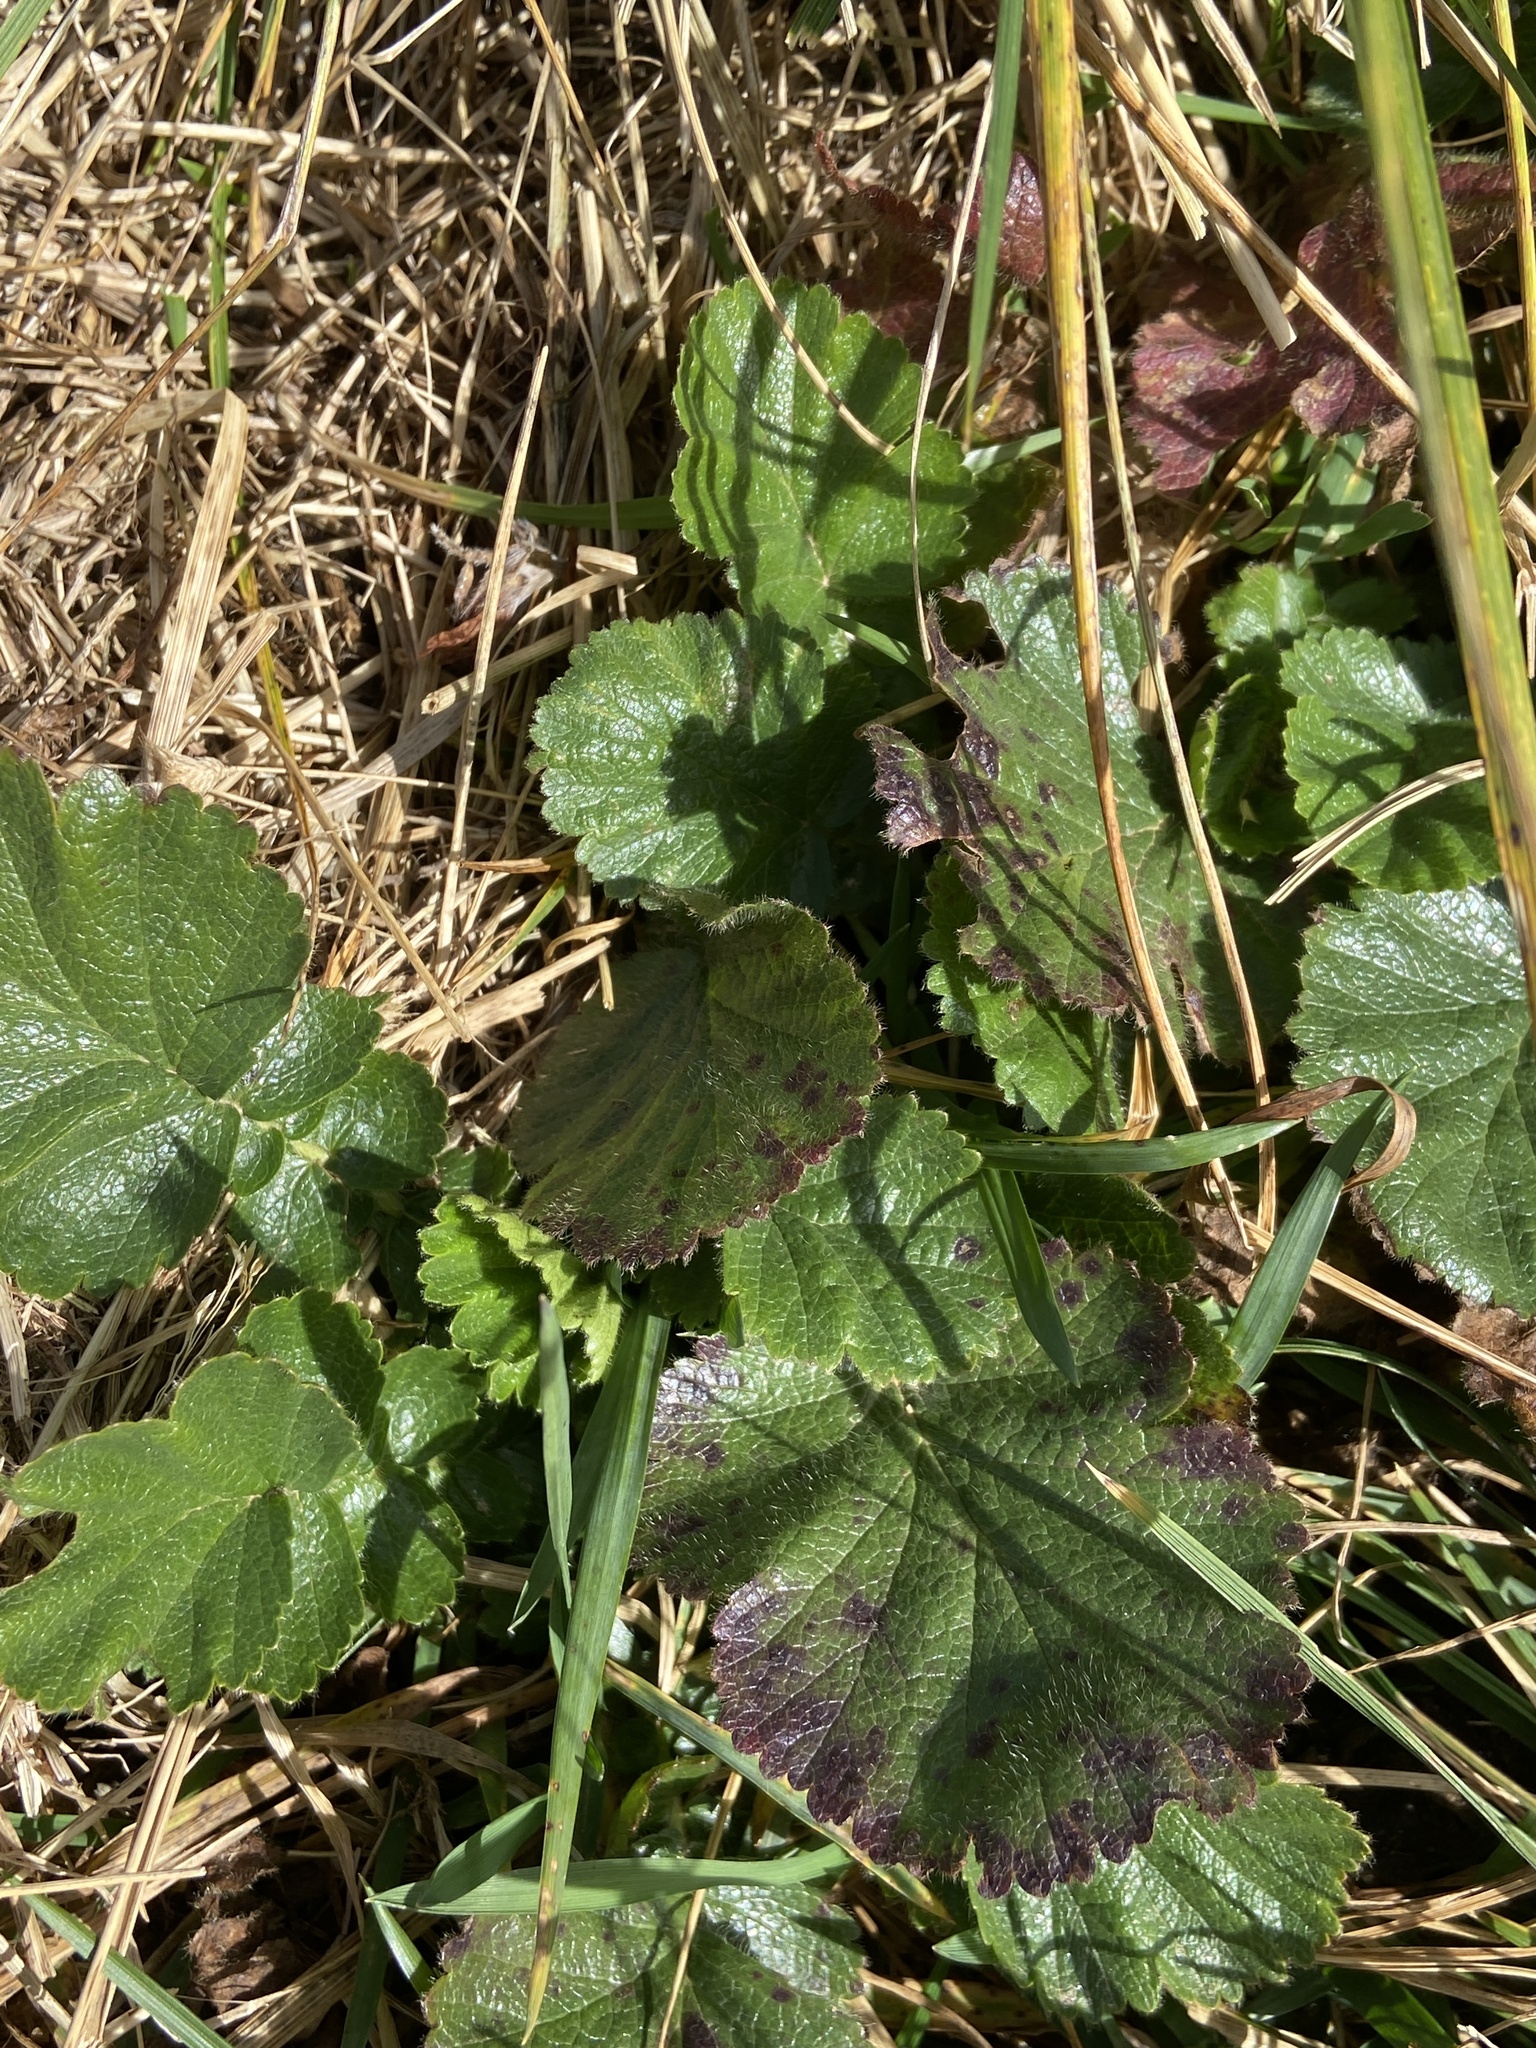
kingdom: Plantae
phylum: Tracheophyta
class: Magnoliopsida
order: Rosales
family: Rosaceae
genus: Geum
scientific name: Geum montanum
